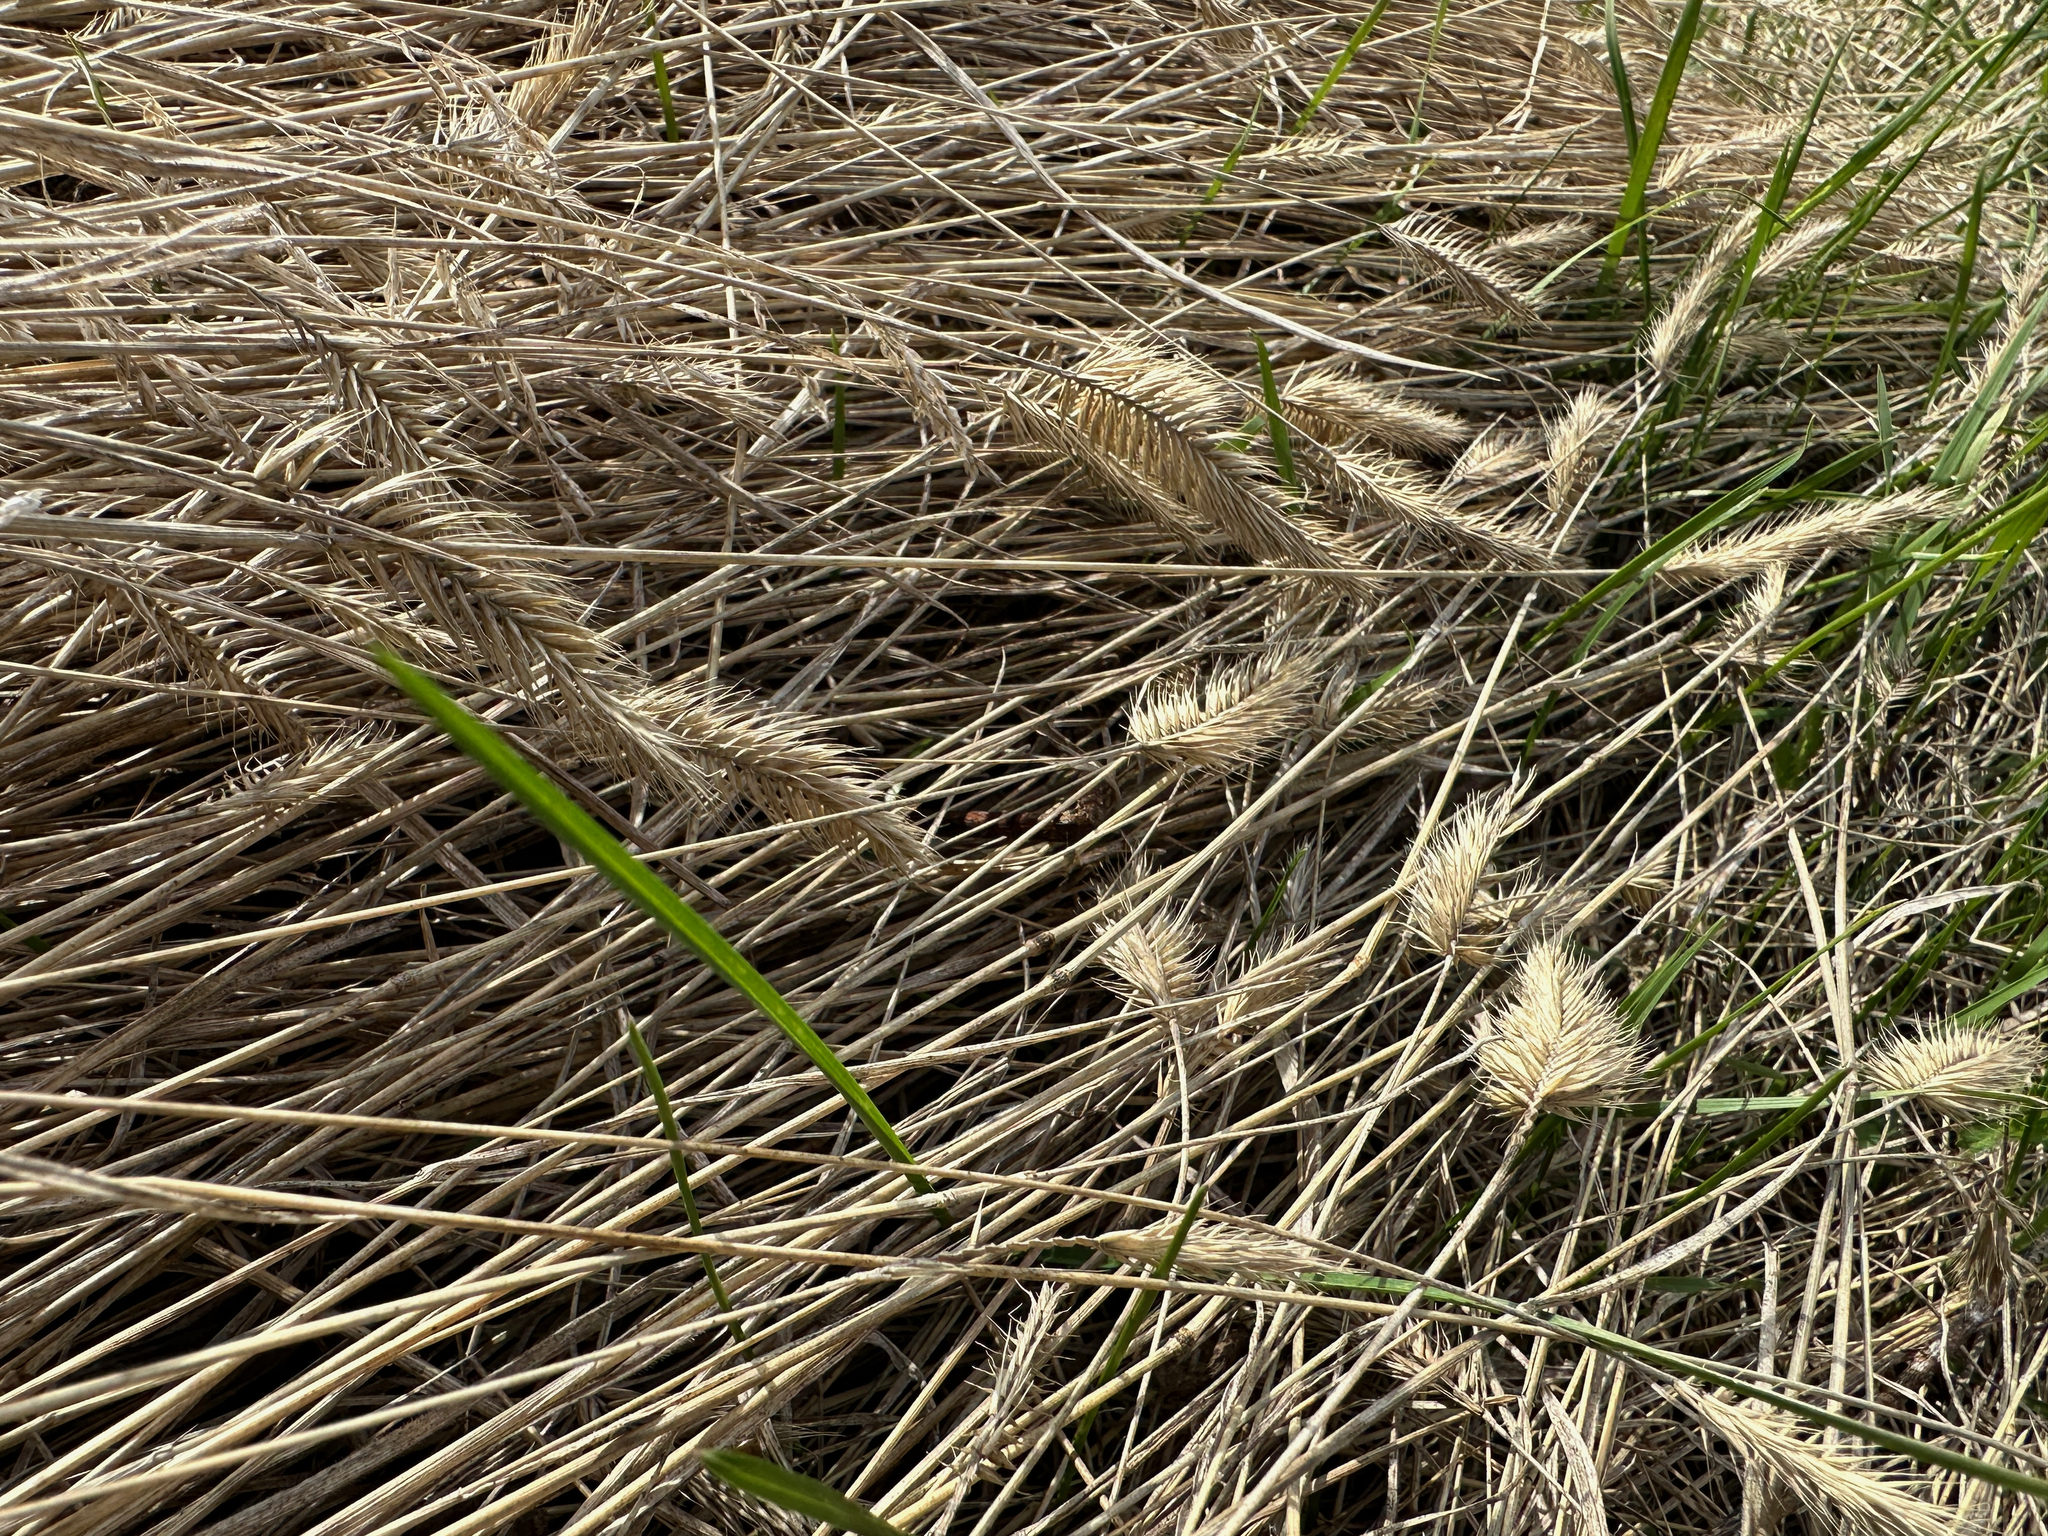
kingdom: Plantae
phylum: Tracheophyta
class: Liliopsida
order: Poales
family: Poaceae
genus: Agropyron
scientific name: Agropyron cristatum
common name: Crested wheatgrass
